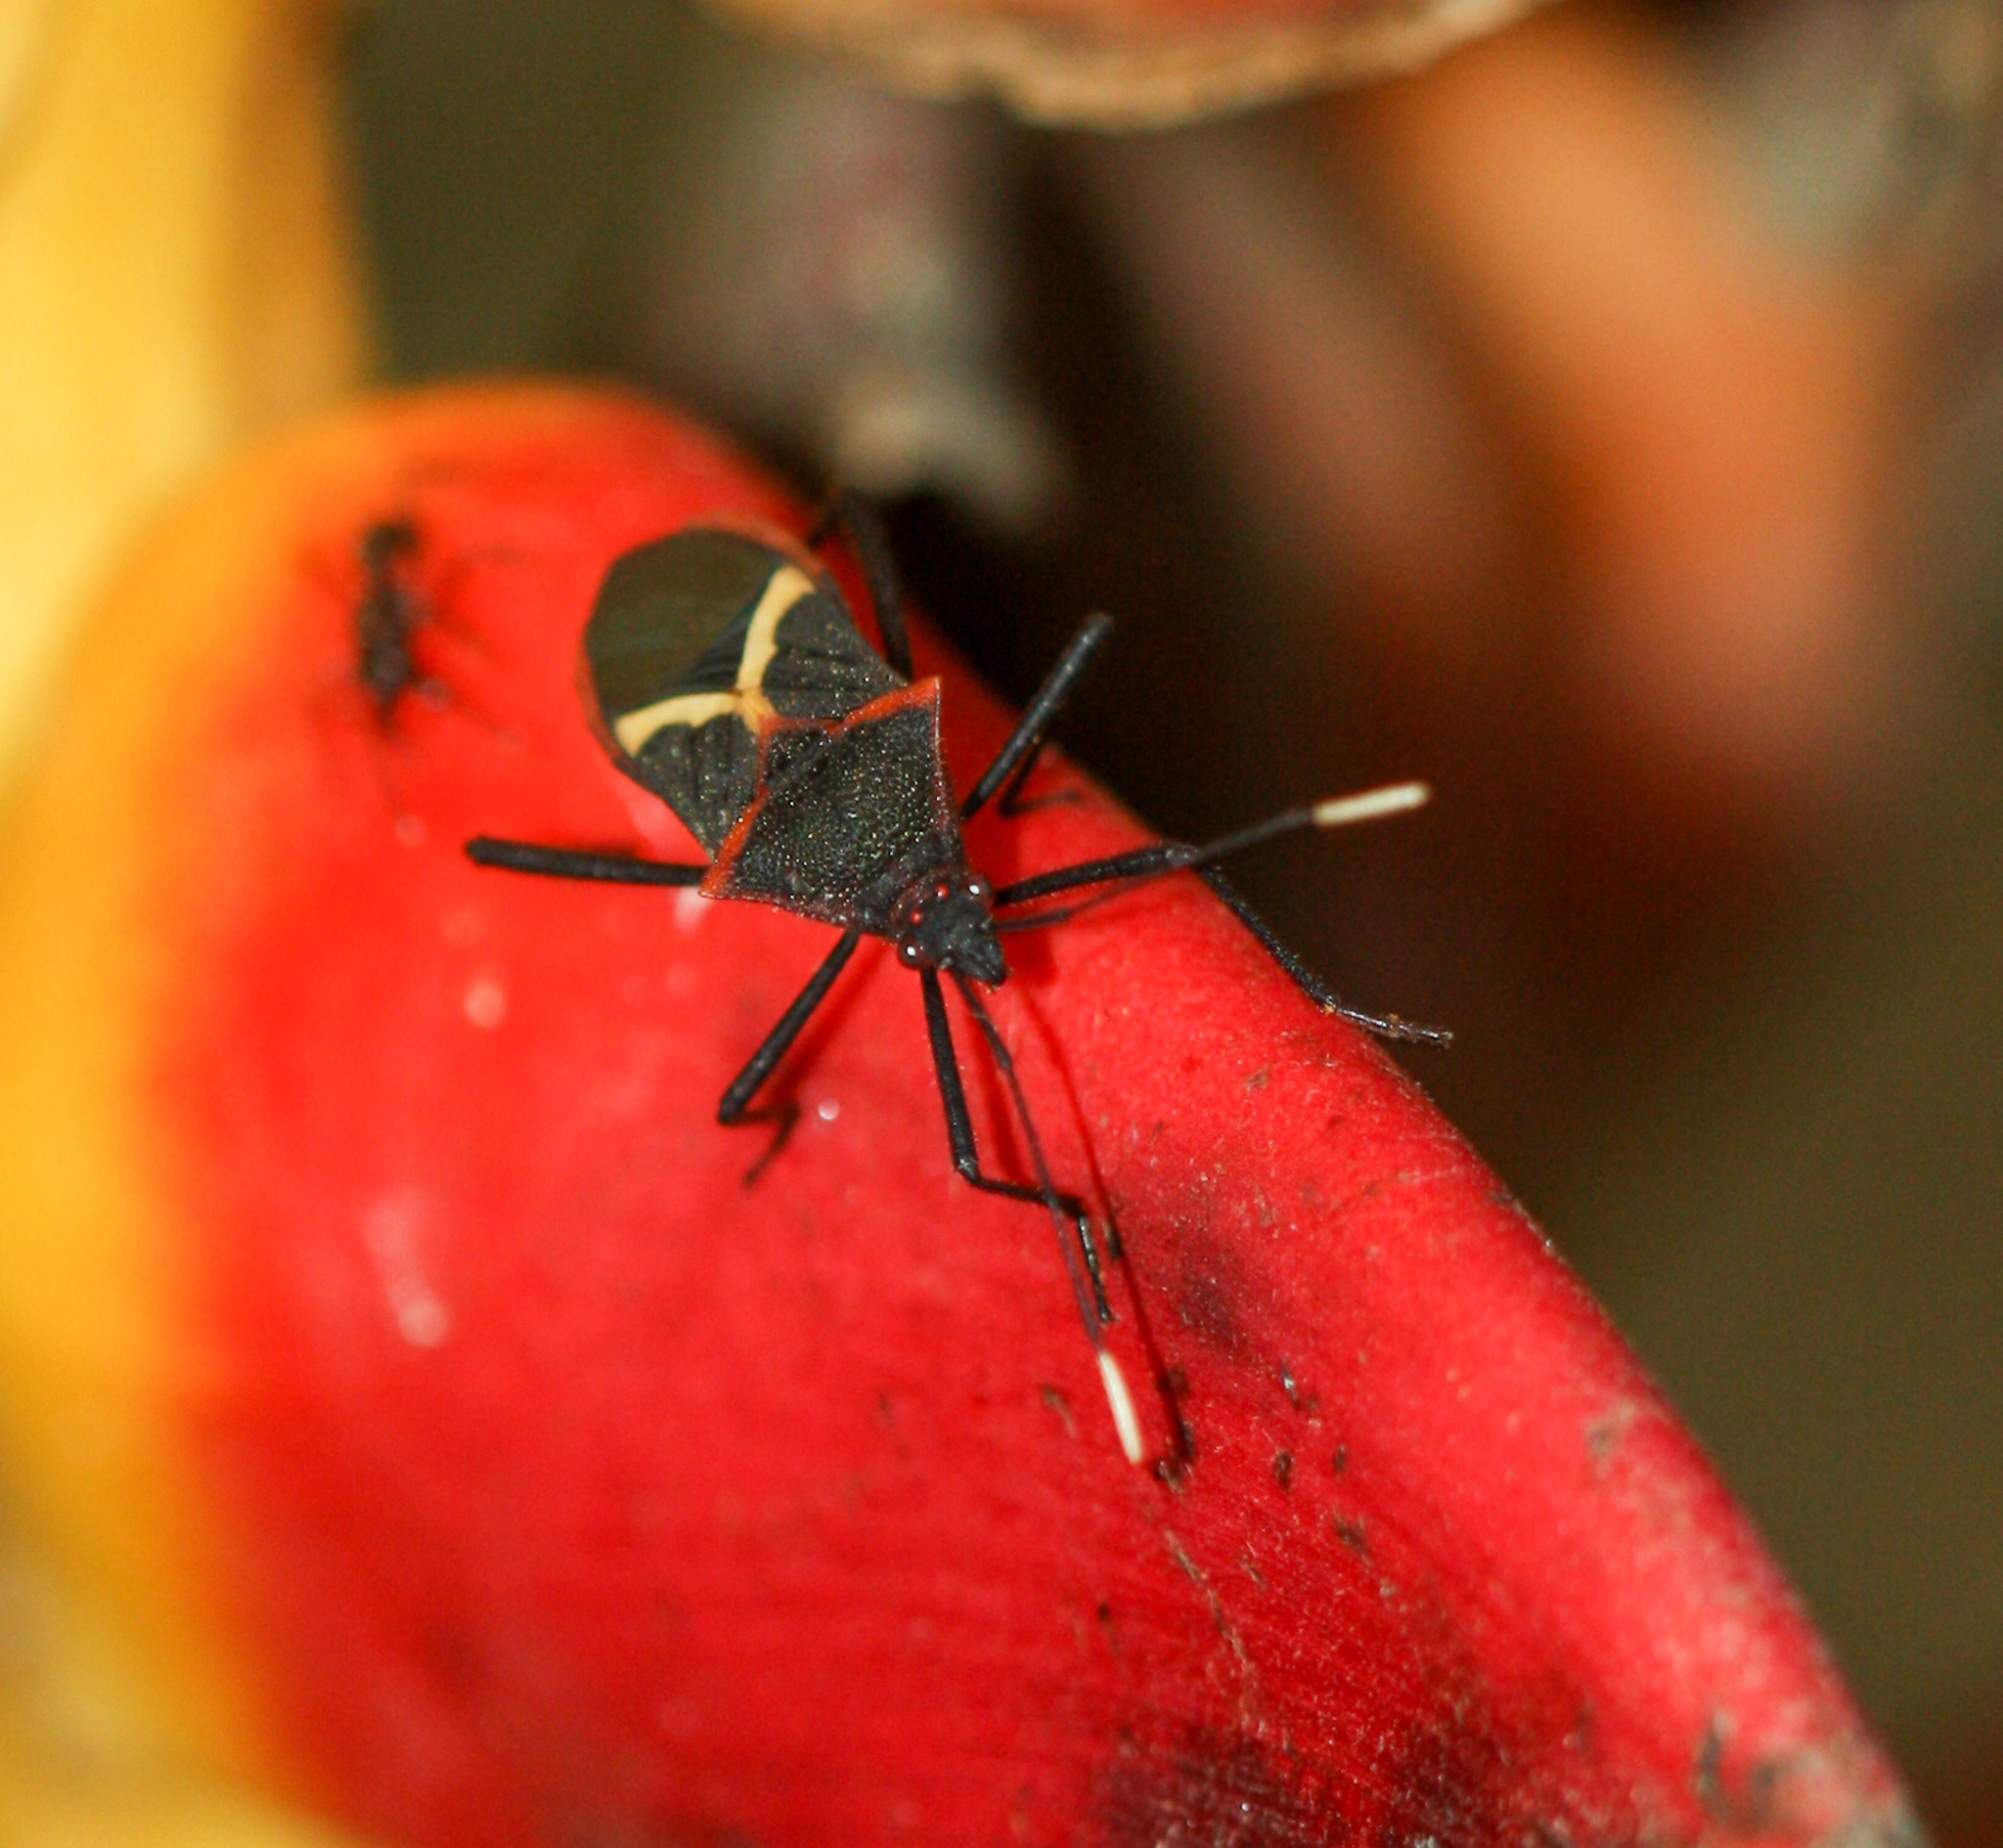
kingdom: Animalia
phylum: Arthropoda
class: Insecta
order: Hemiptera
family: Coreidae
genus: Leptoscelis
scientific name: Leptoscelis tricolor
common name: Heliconia bug
